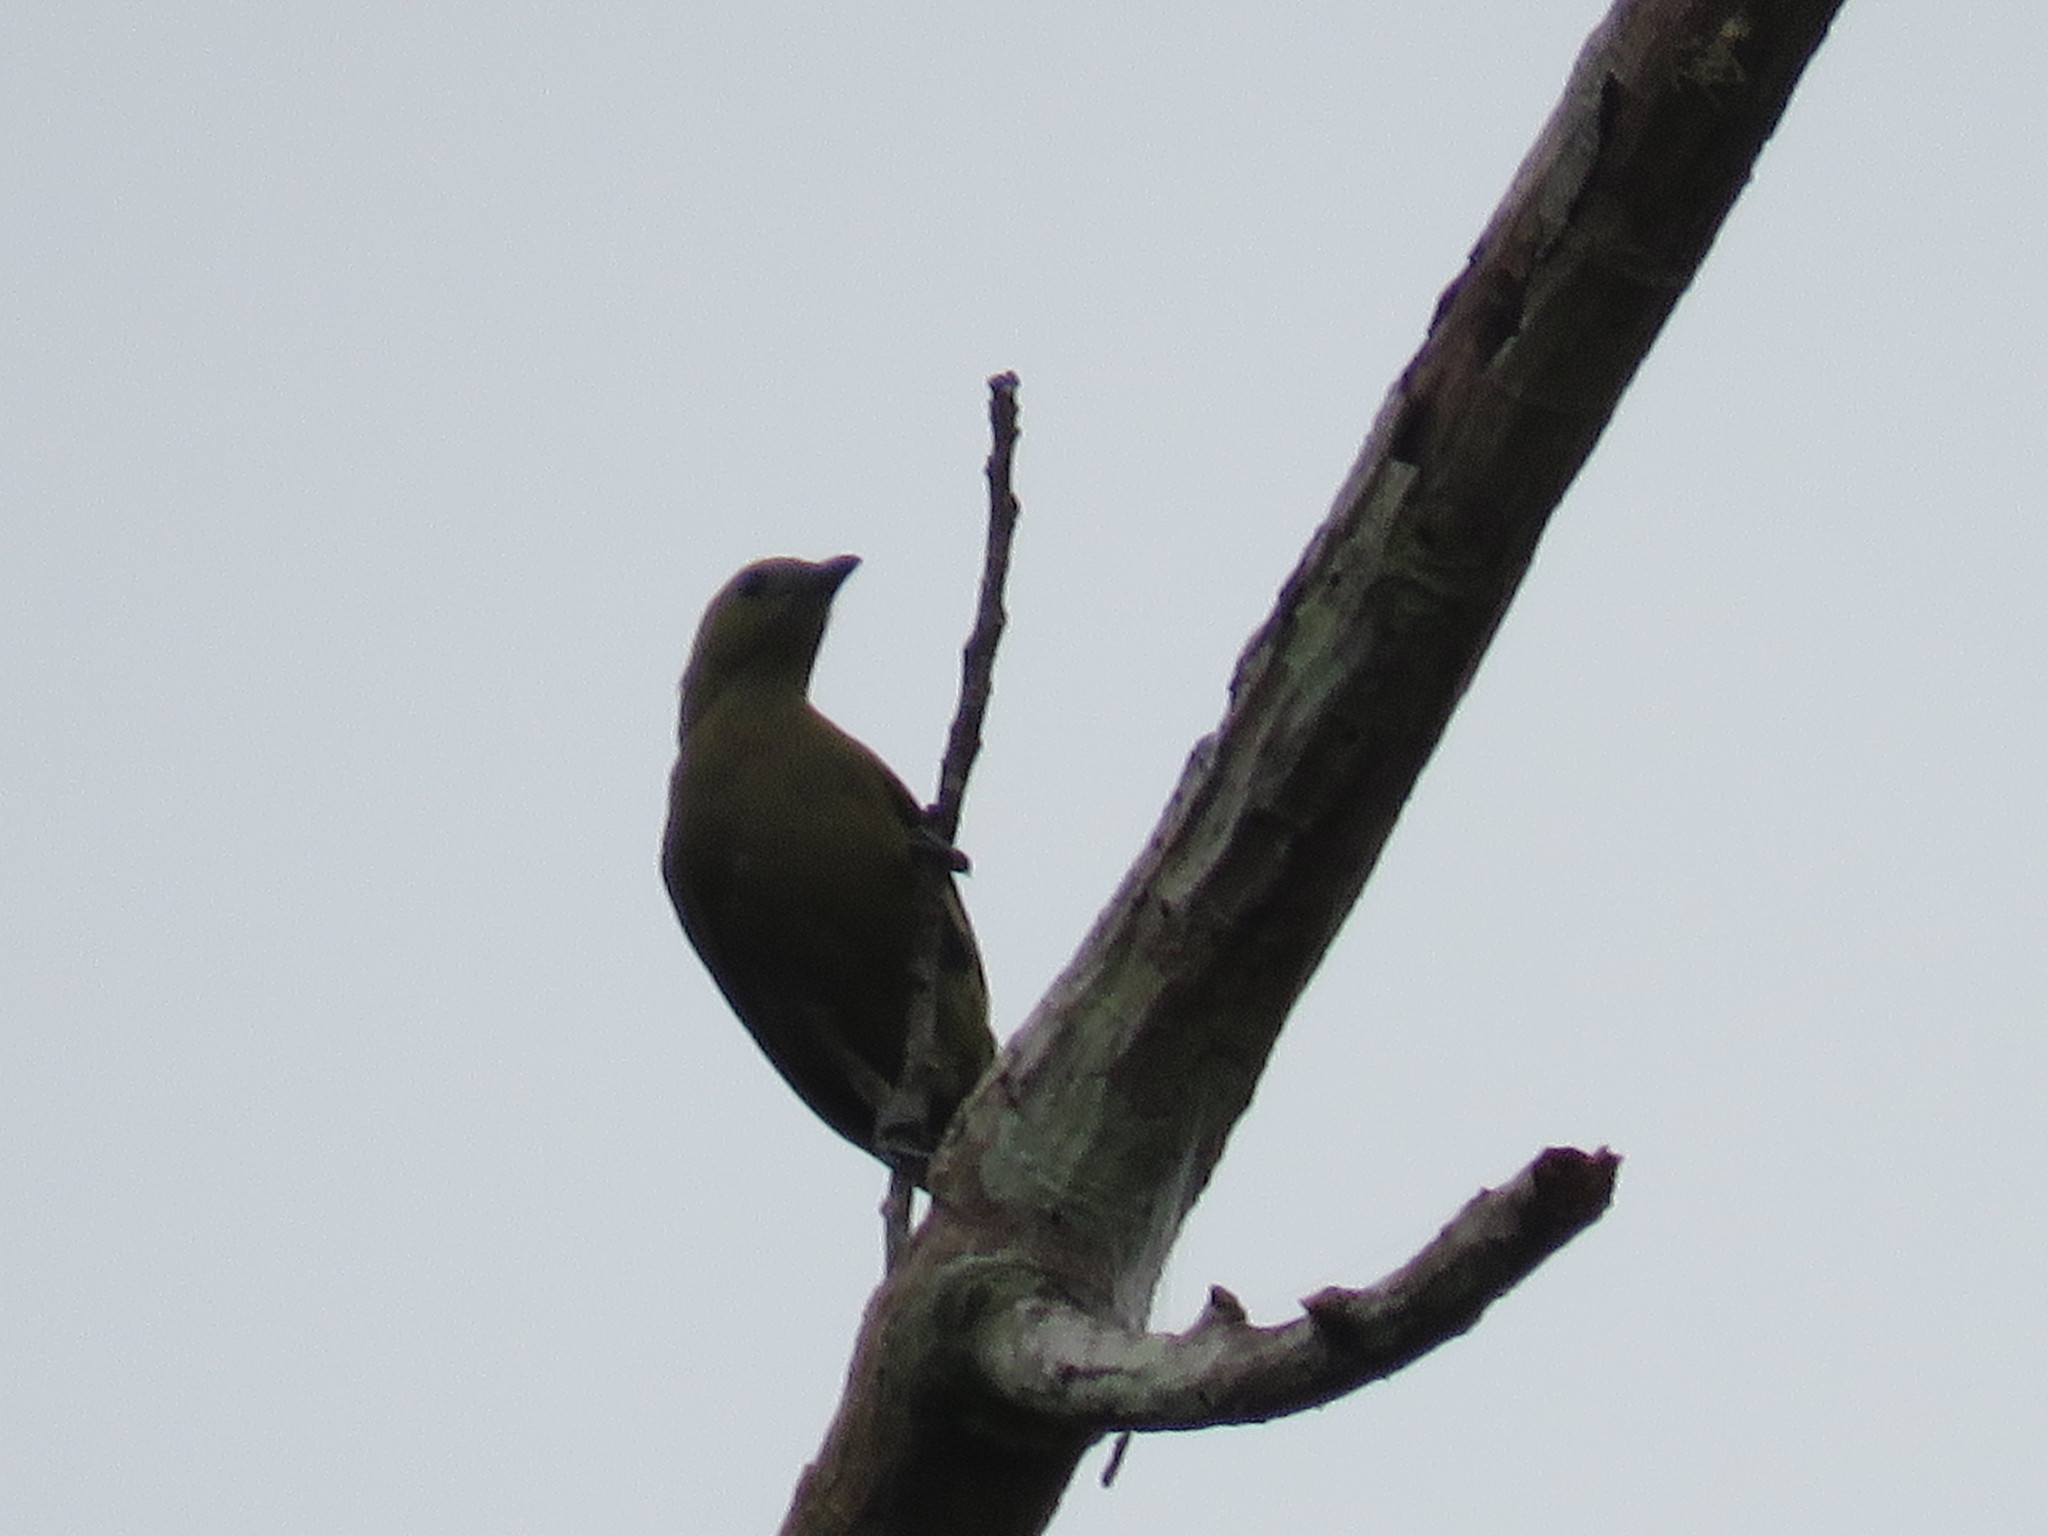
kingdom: Animalia
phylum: Chordata
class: Aves
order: Passeriformes
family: Thraupidae
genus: Thraupis
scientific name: Thraupis palmarum
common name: Palm tanager
